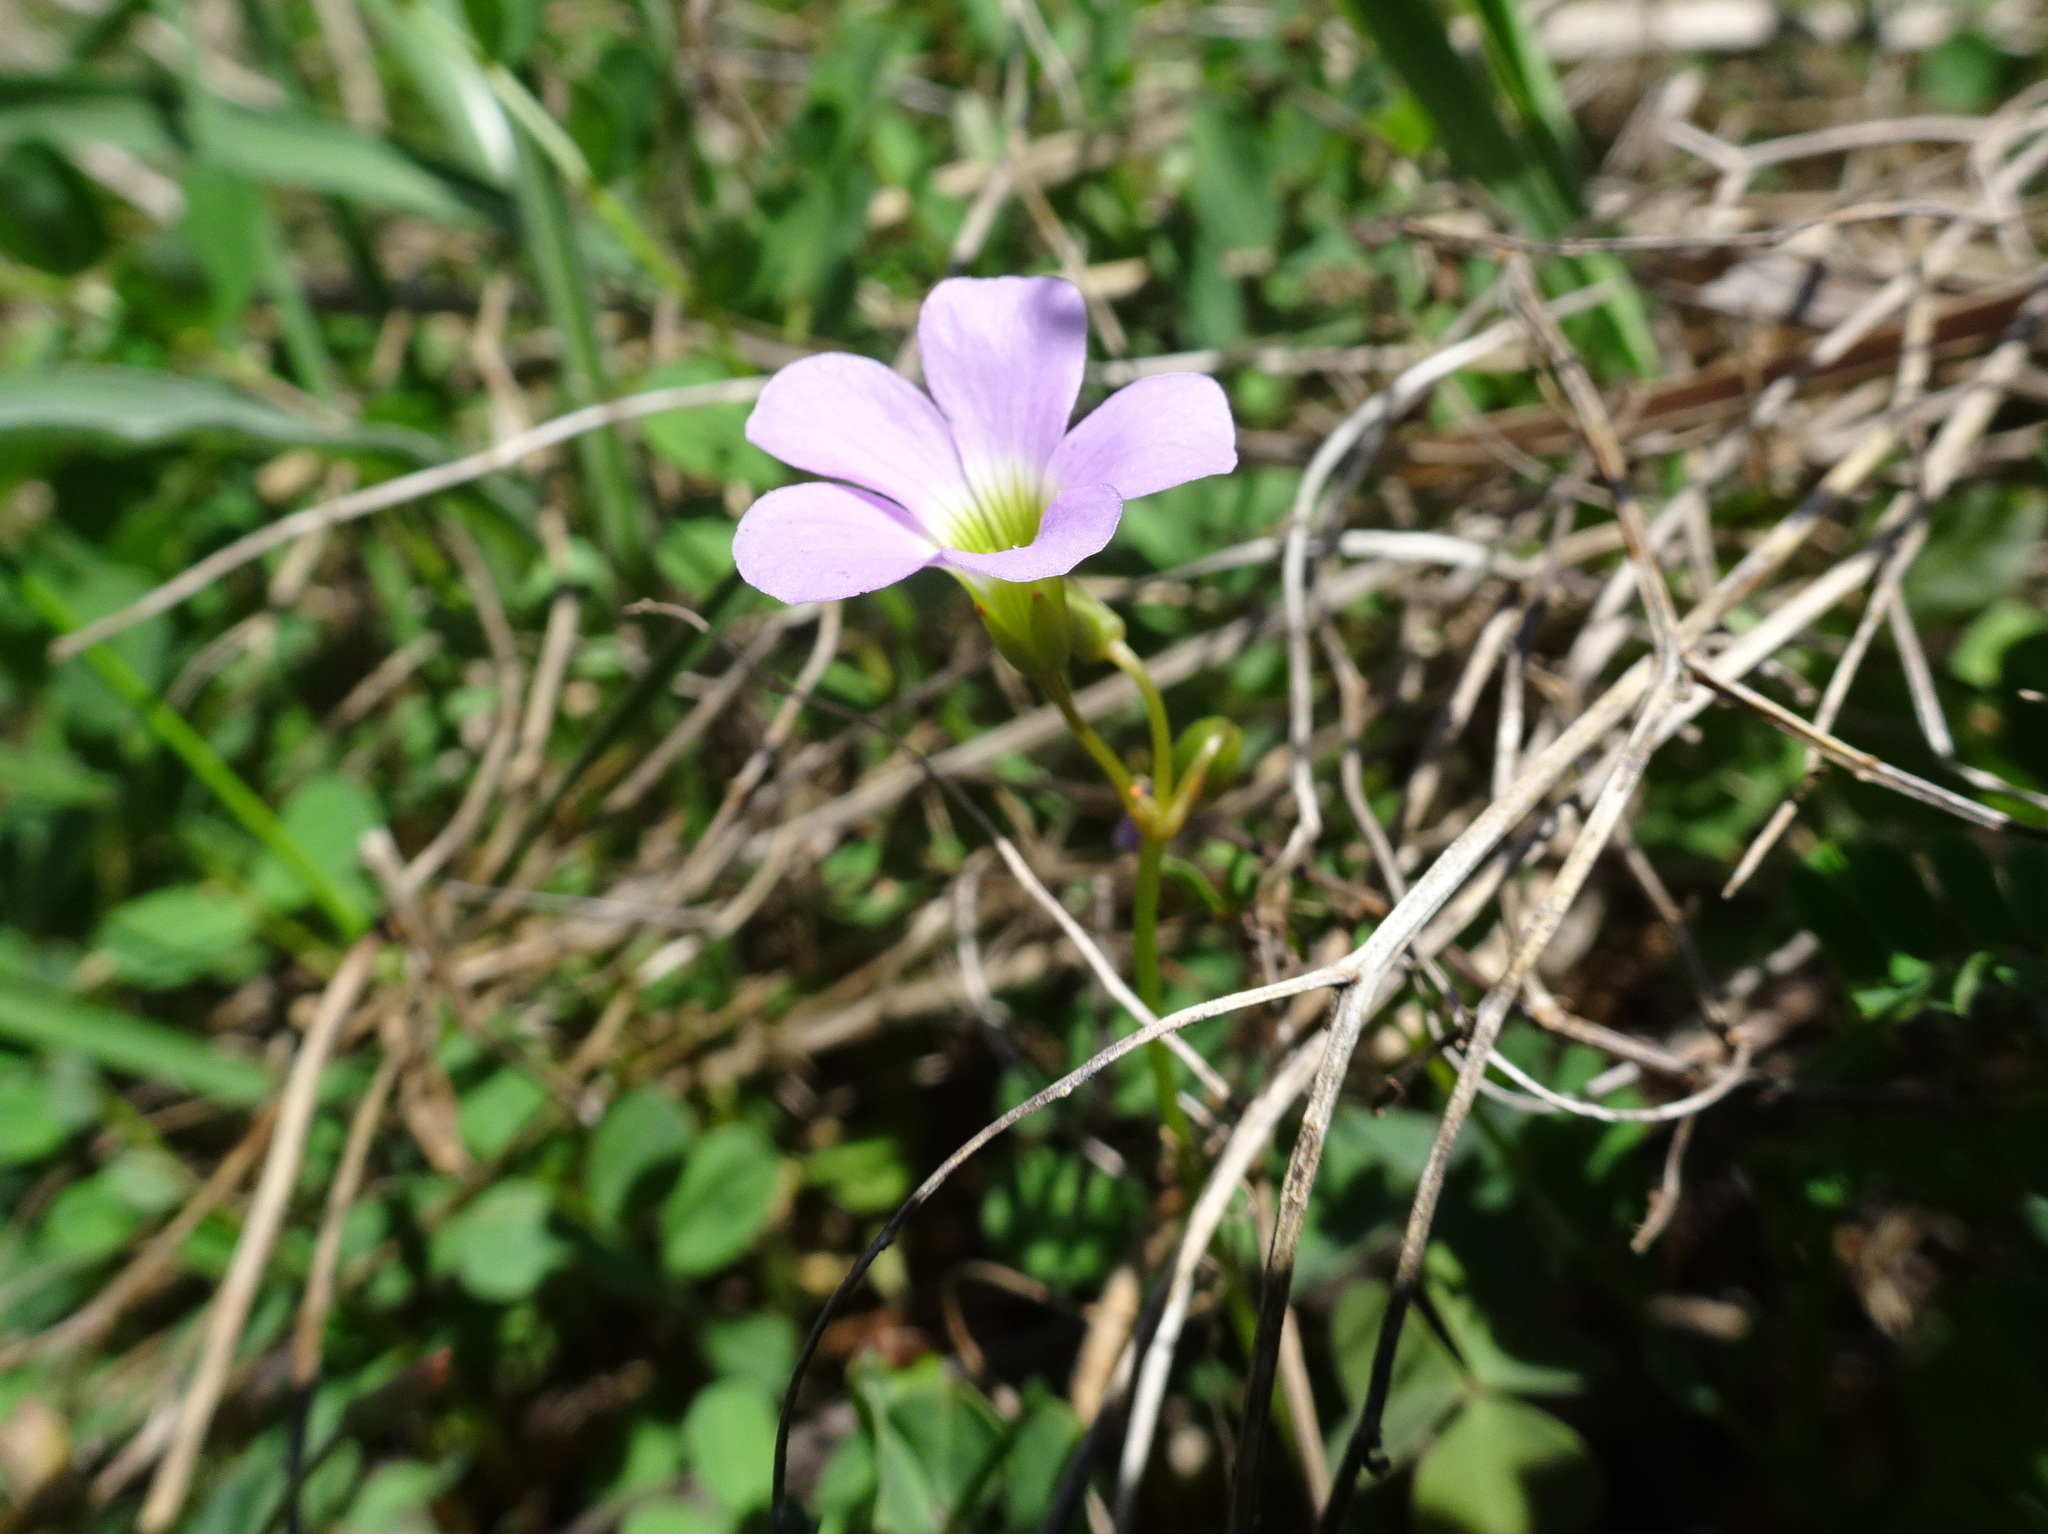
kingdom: Plantae
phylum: Tracheophyta
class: Magnoliopsida
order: Oxalidales
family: Oxalidaceae
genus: Oxalis
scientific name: Oxalis violacea
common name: Violet wood-sorrel
